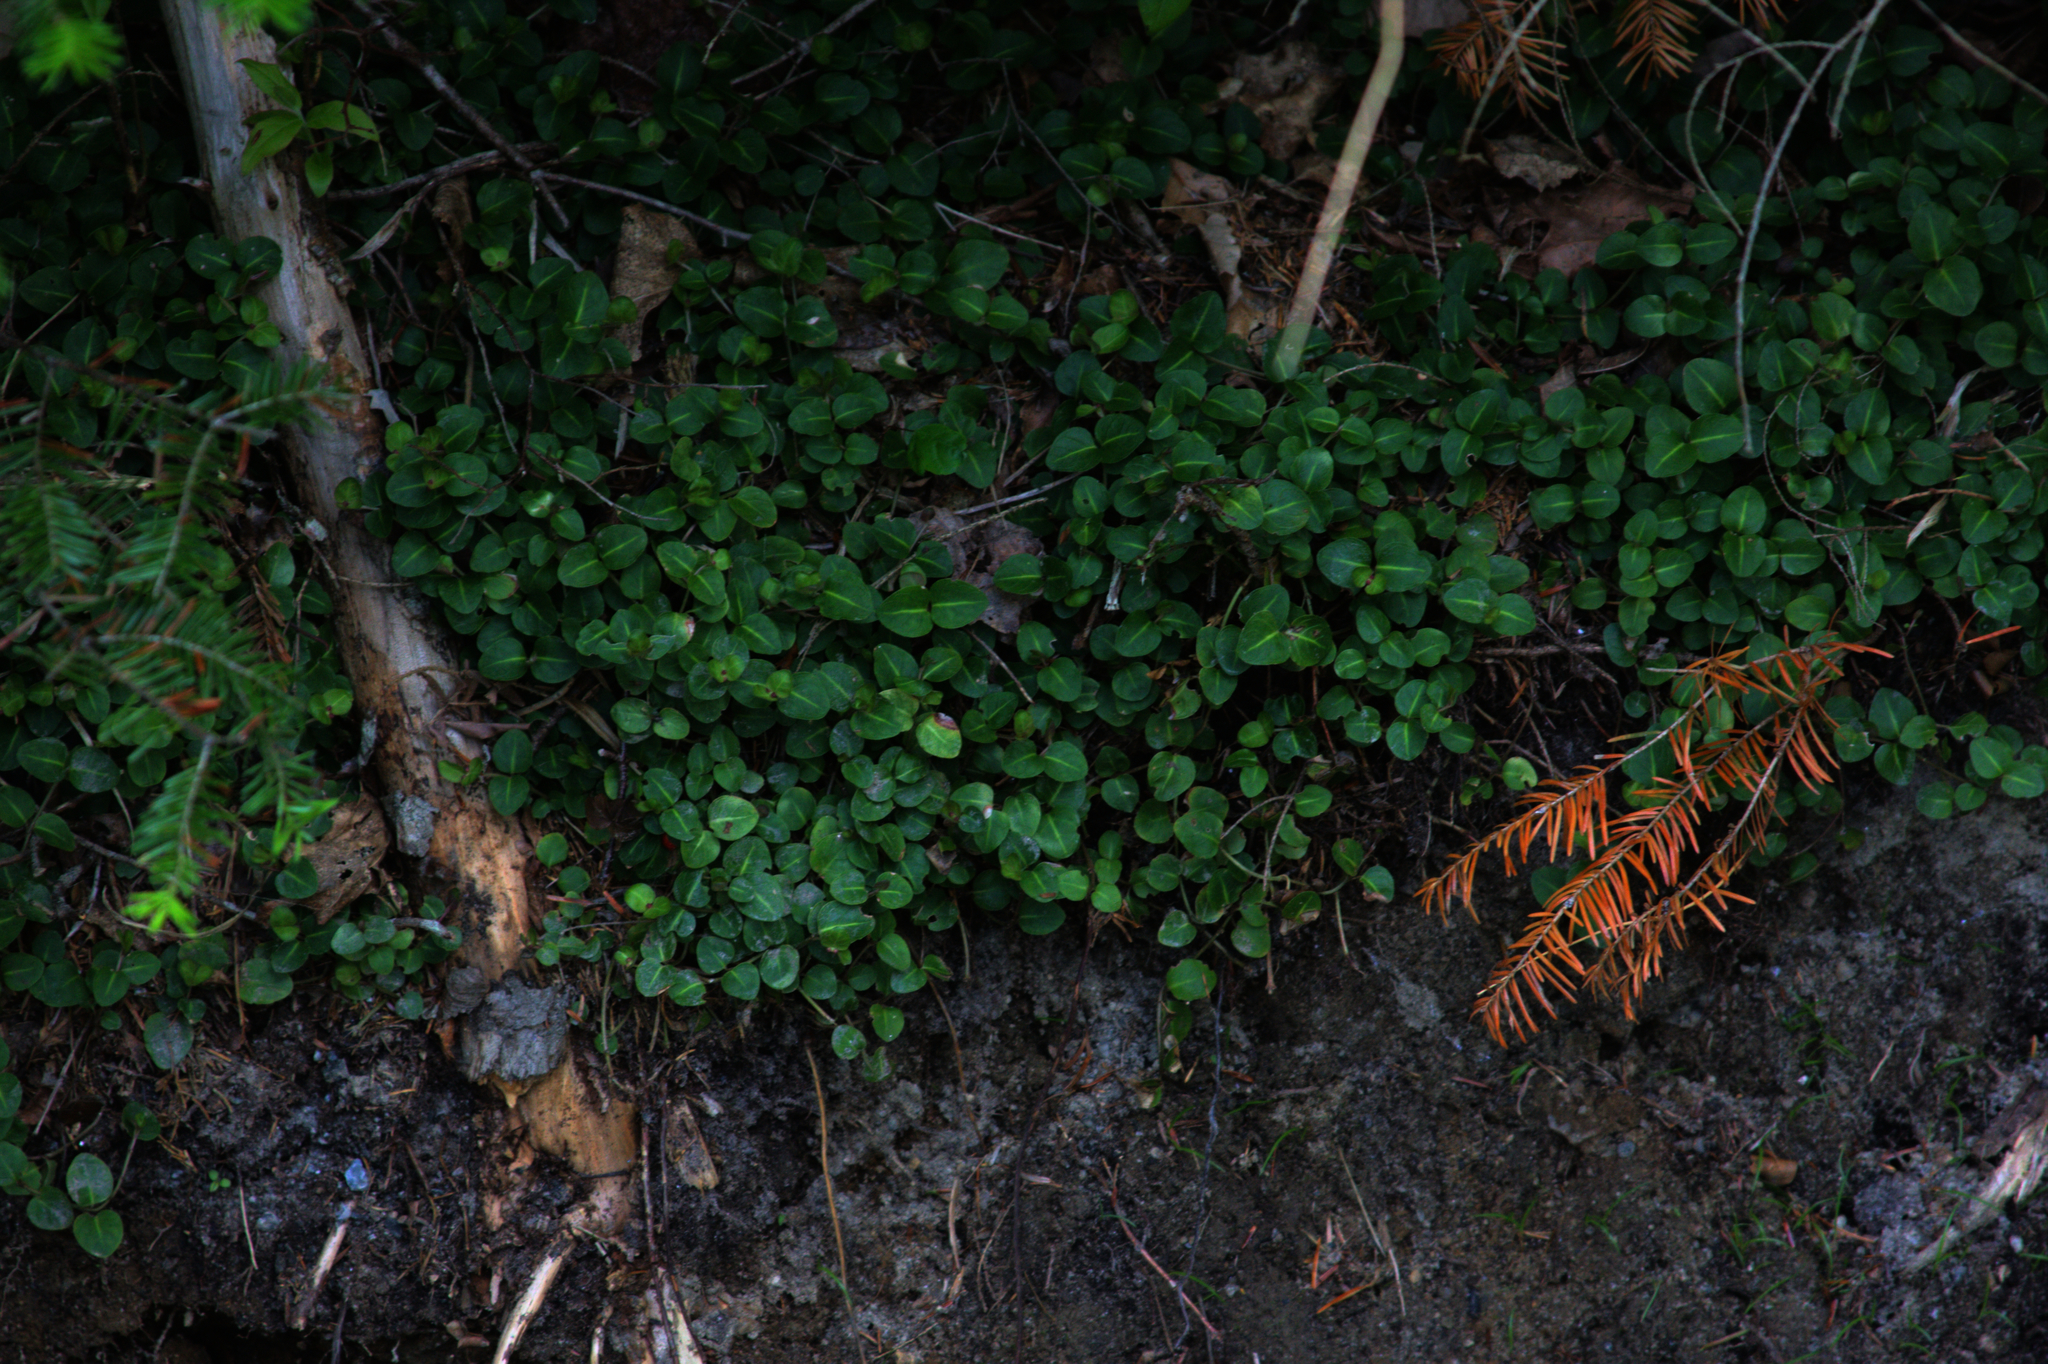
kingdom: Plantae
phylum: Tracheophyta
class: Magnoliopsida
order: Gentianales
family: Rubiaceae
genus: Mitchella
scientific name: Mitchella repens
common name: Partridge-berry
